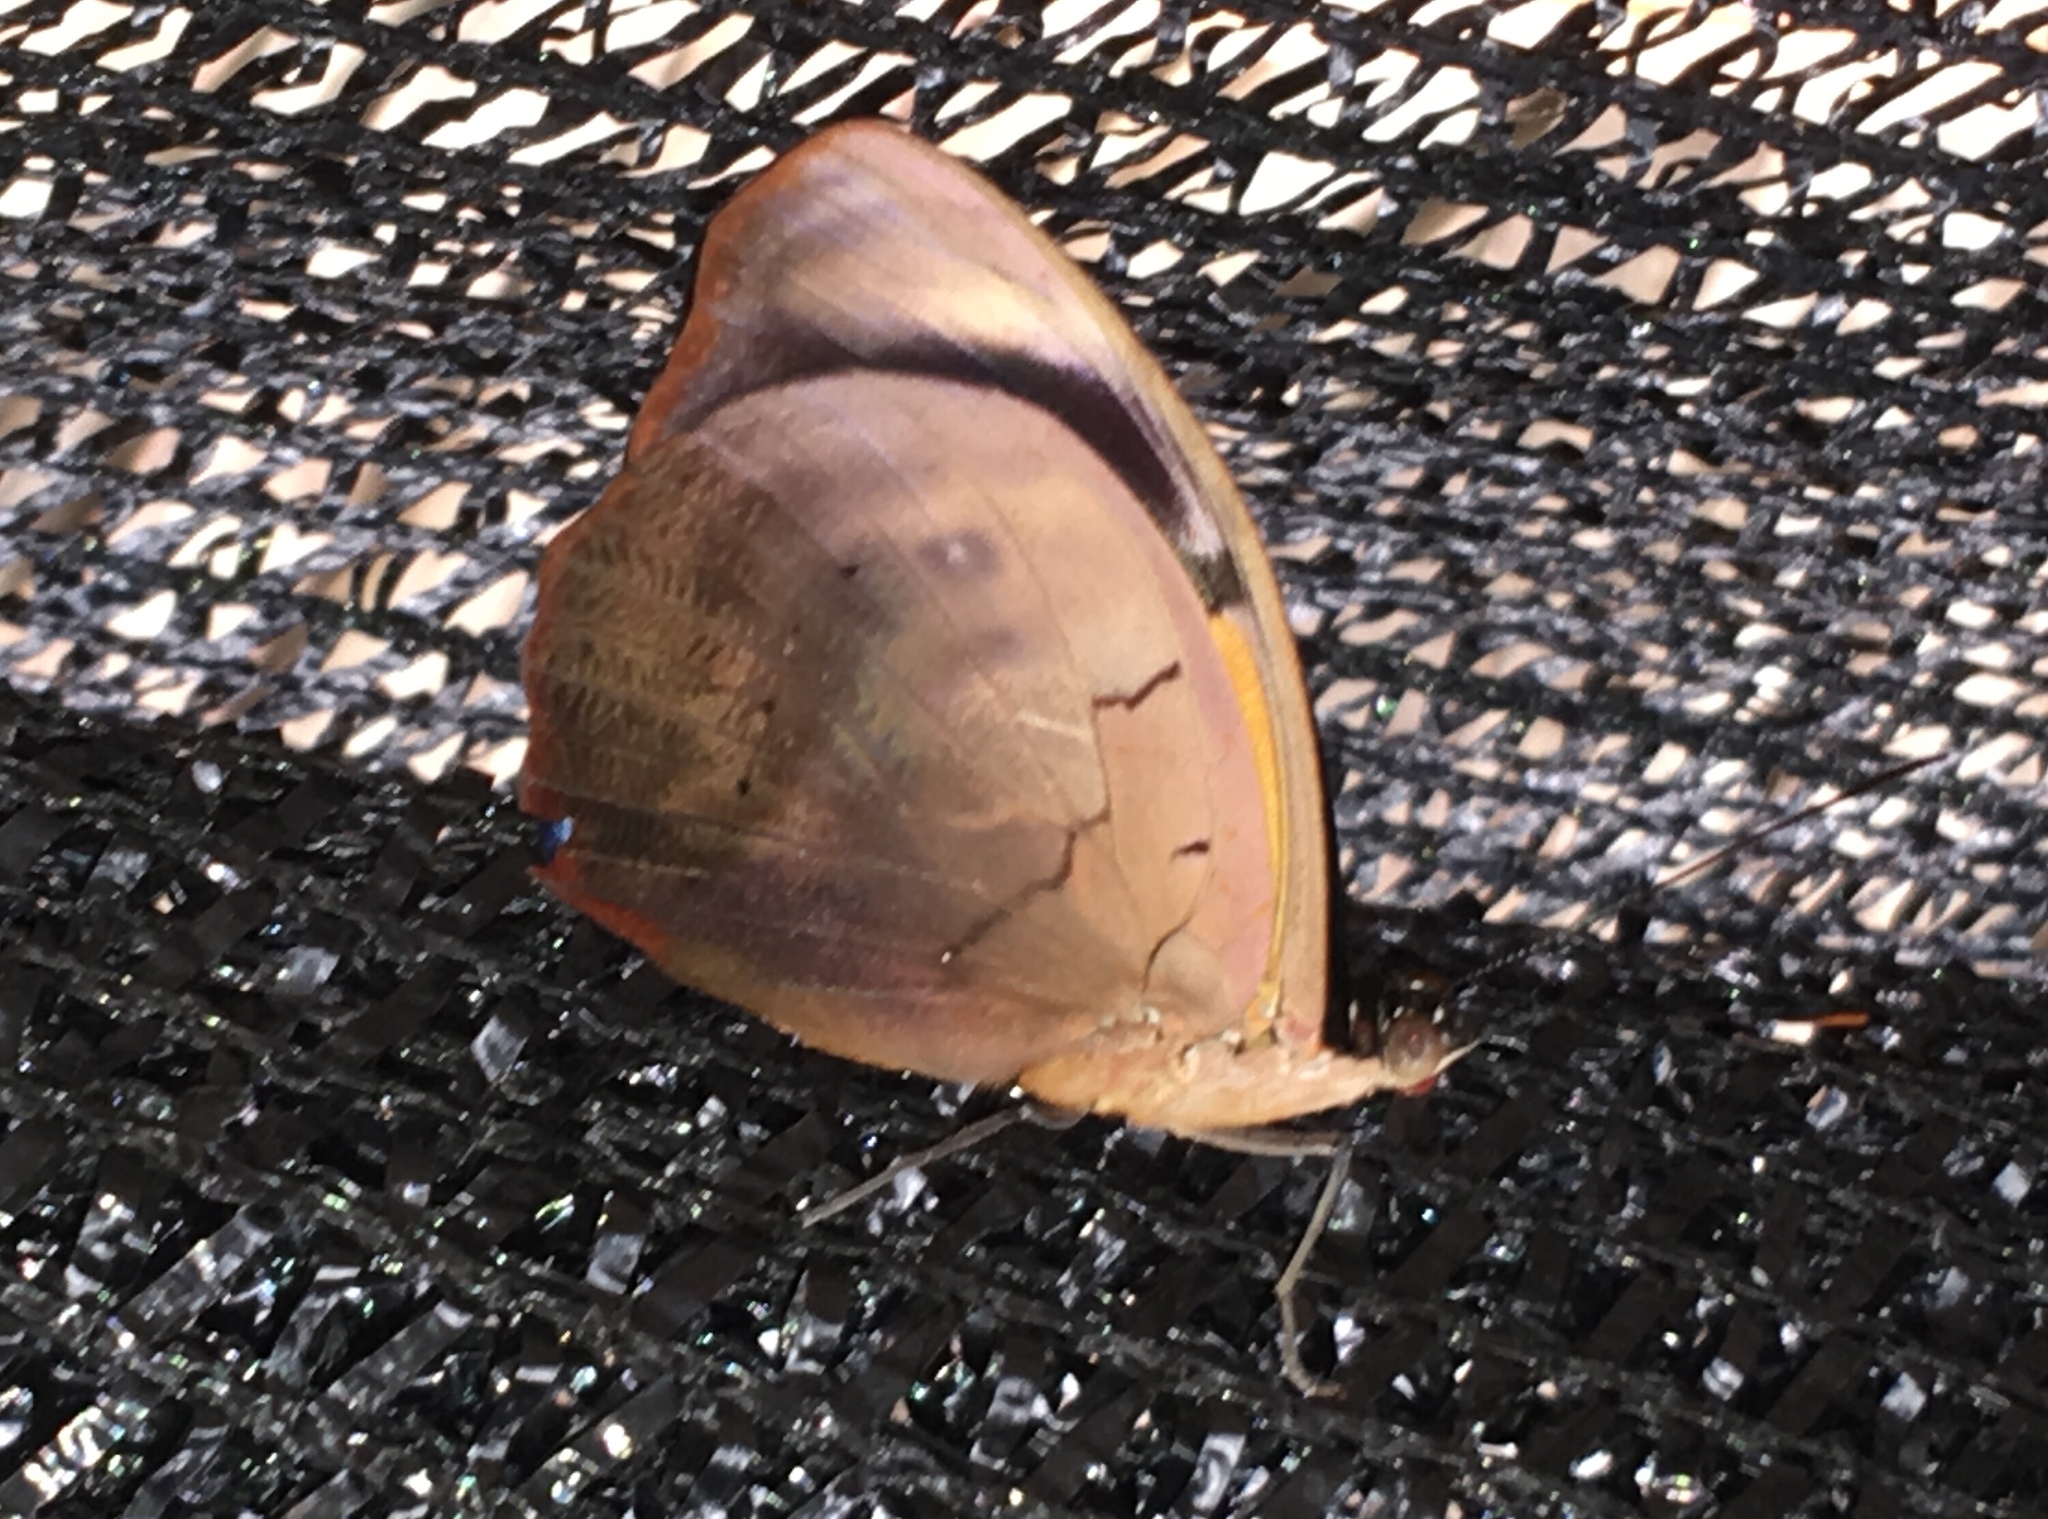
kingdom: Animalia
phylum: Arthropoda
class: Insecta
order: Lepidoptera
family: Nymphalidae
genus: Catonephele
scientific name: Catonephele numilia
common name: Blue-frosted banner
